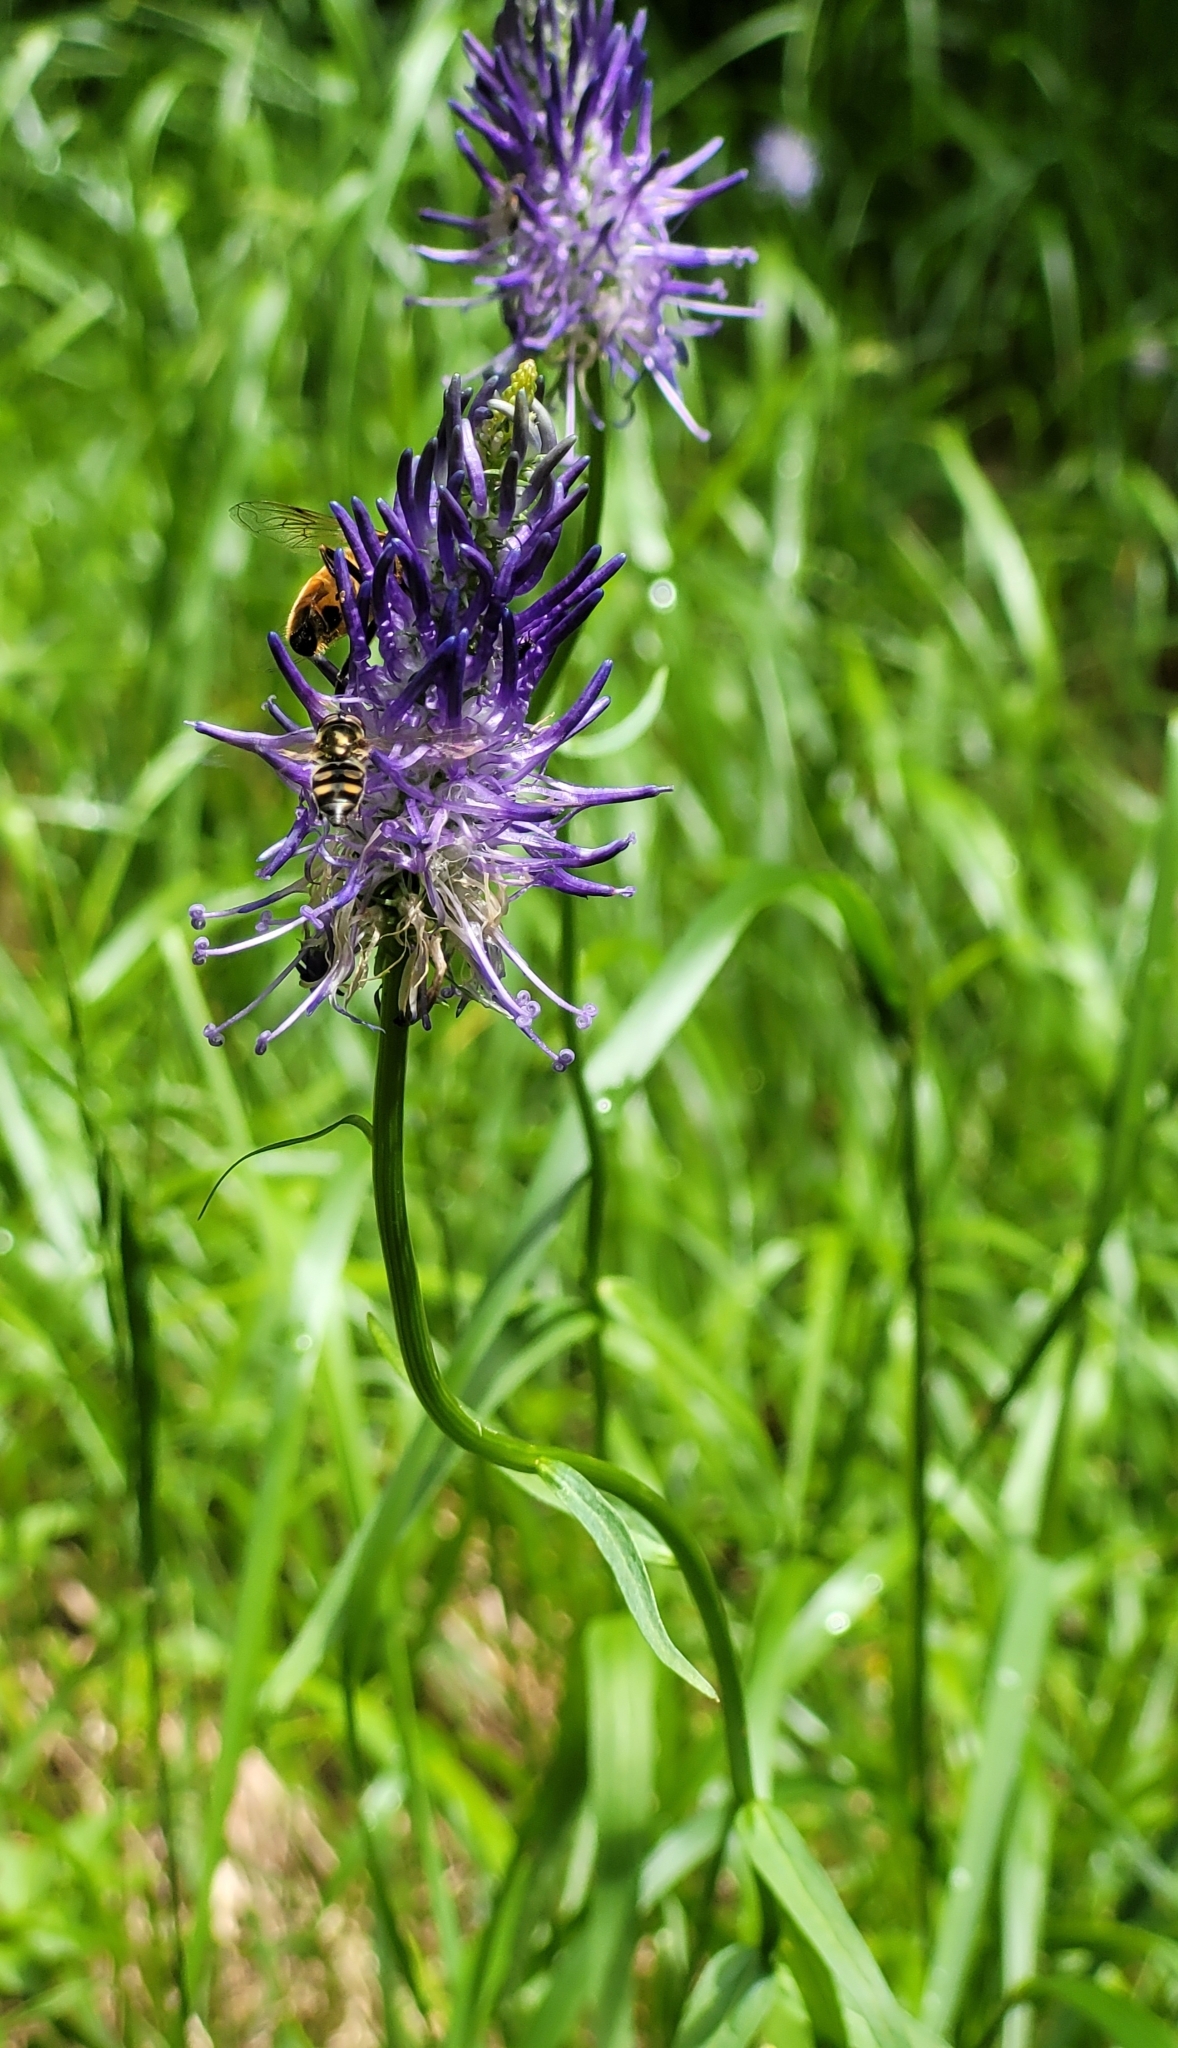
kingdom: Plantae
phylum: Tracheophyta
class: Magnoliopsida
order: Asterales
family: Campanulaceae
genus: Phyteuma
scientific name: Phyteuma persicifolium
